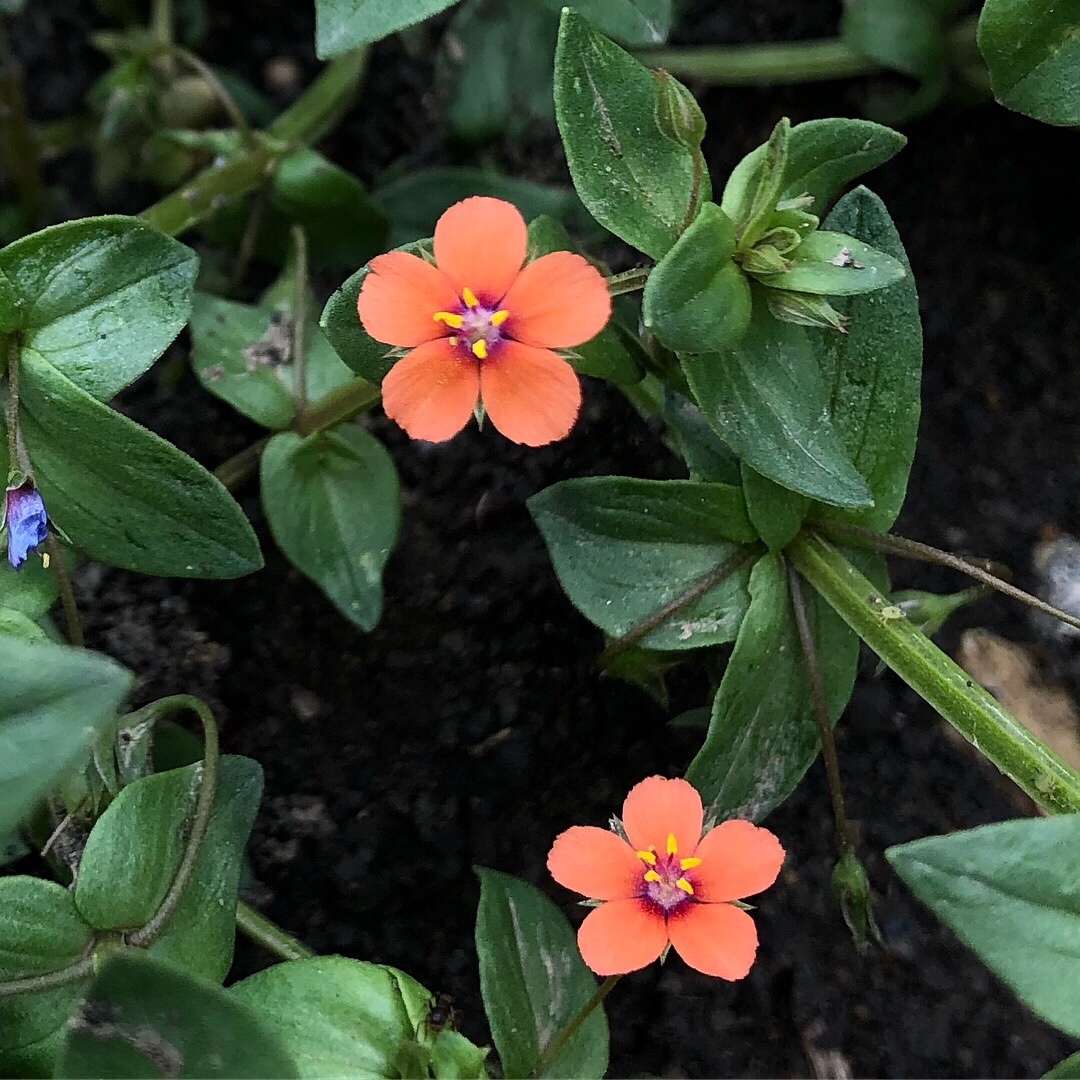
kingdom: Plantae
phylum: Tracheophyta
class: Magnoliopsida
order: Ericales
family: Primulaceae
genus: Lysimachia
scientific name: Lysimachia arvensis
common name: Scarlet pimpernel
